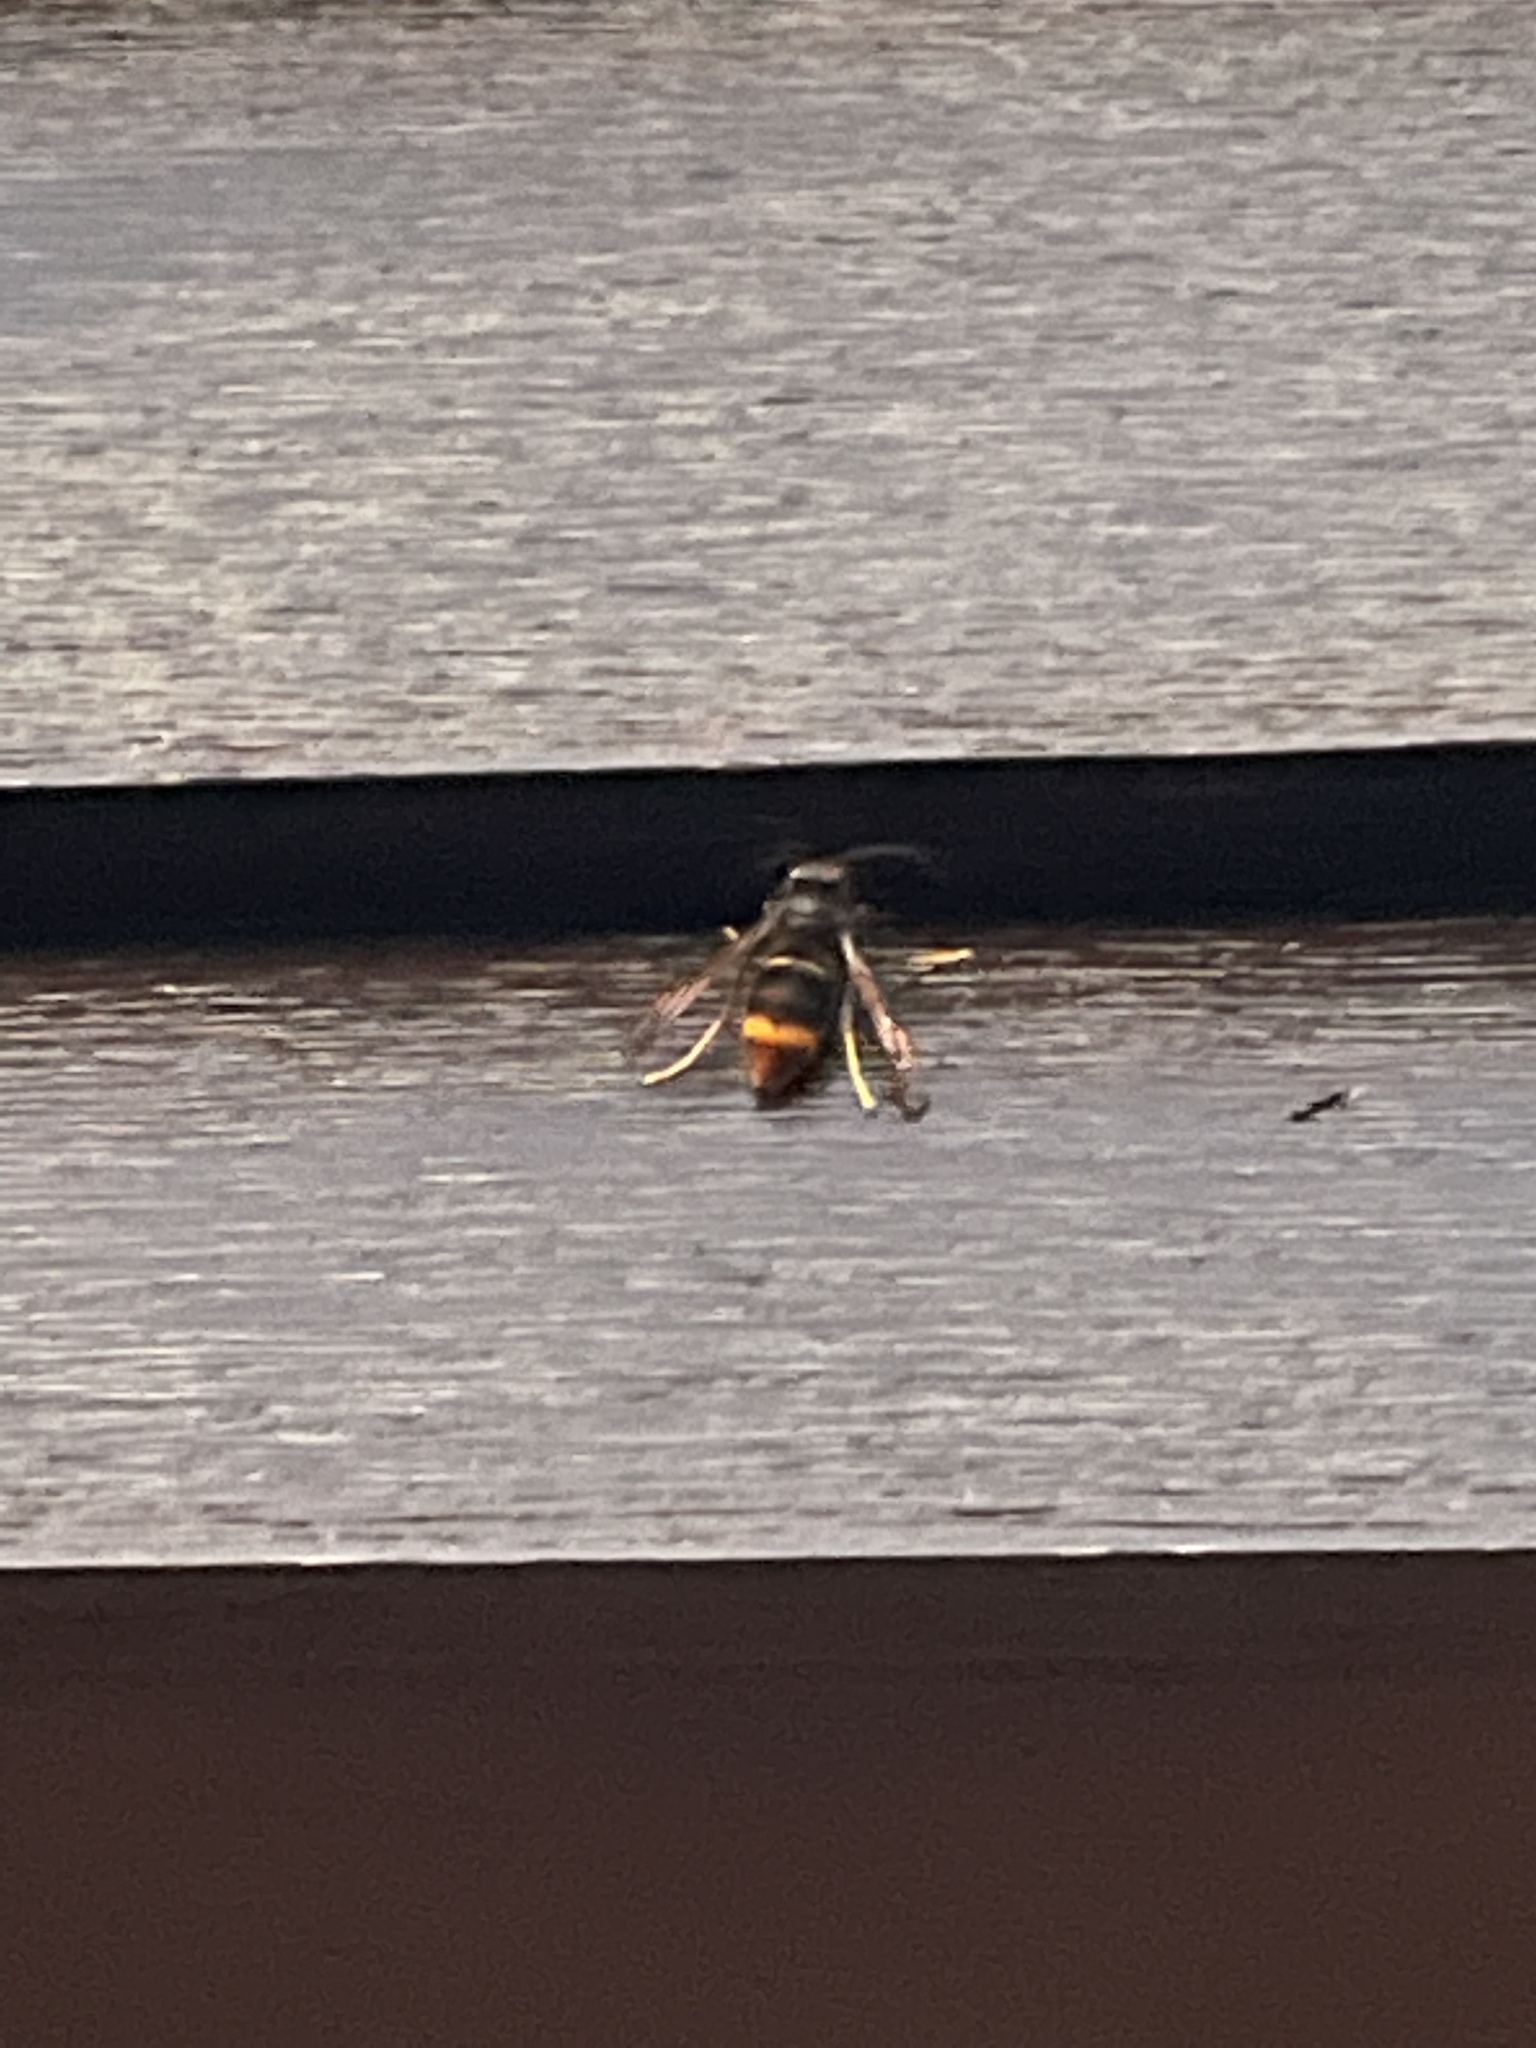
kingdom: Animalia
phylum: Arthropoda
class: Insecta
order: Hymenoptera
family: Vespidae
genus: Vespa
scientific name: Vespa velutina
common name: Asian hornet
